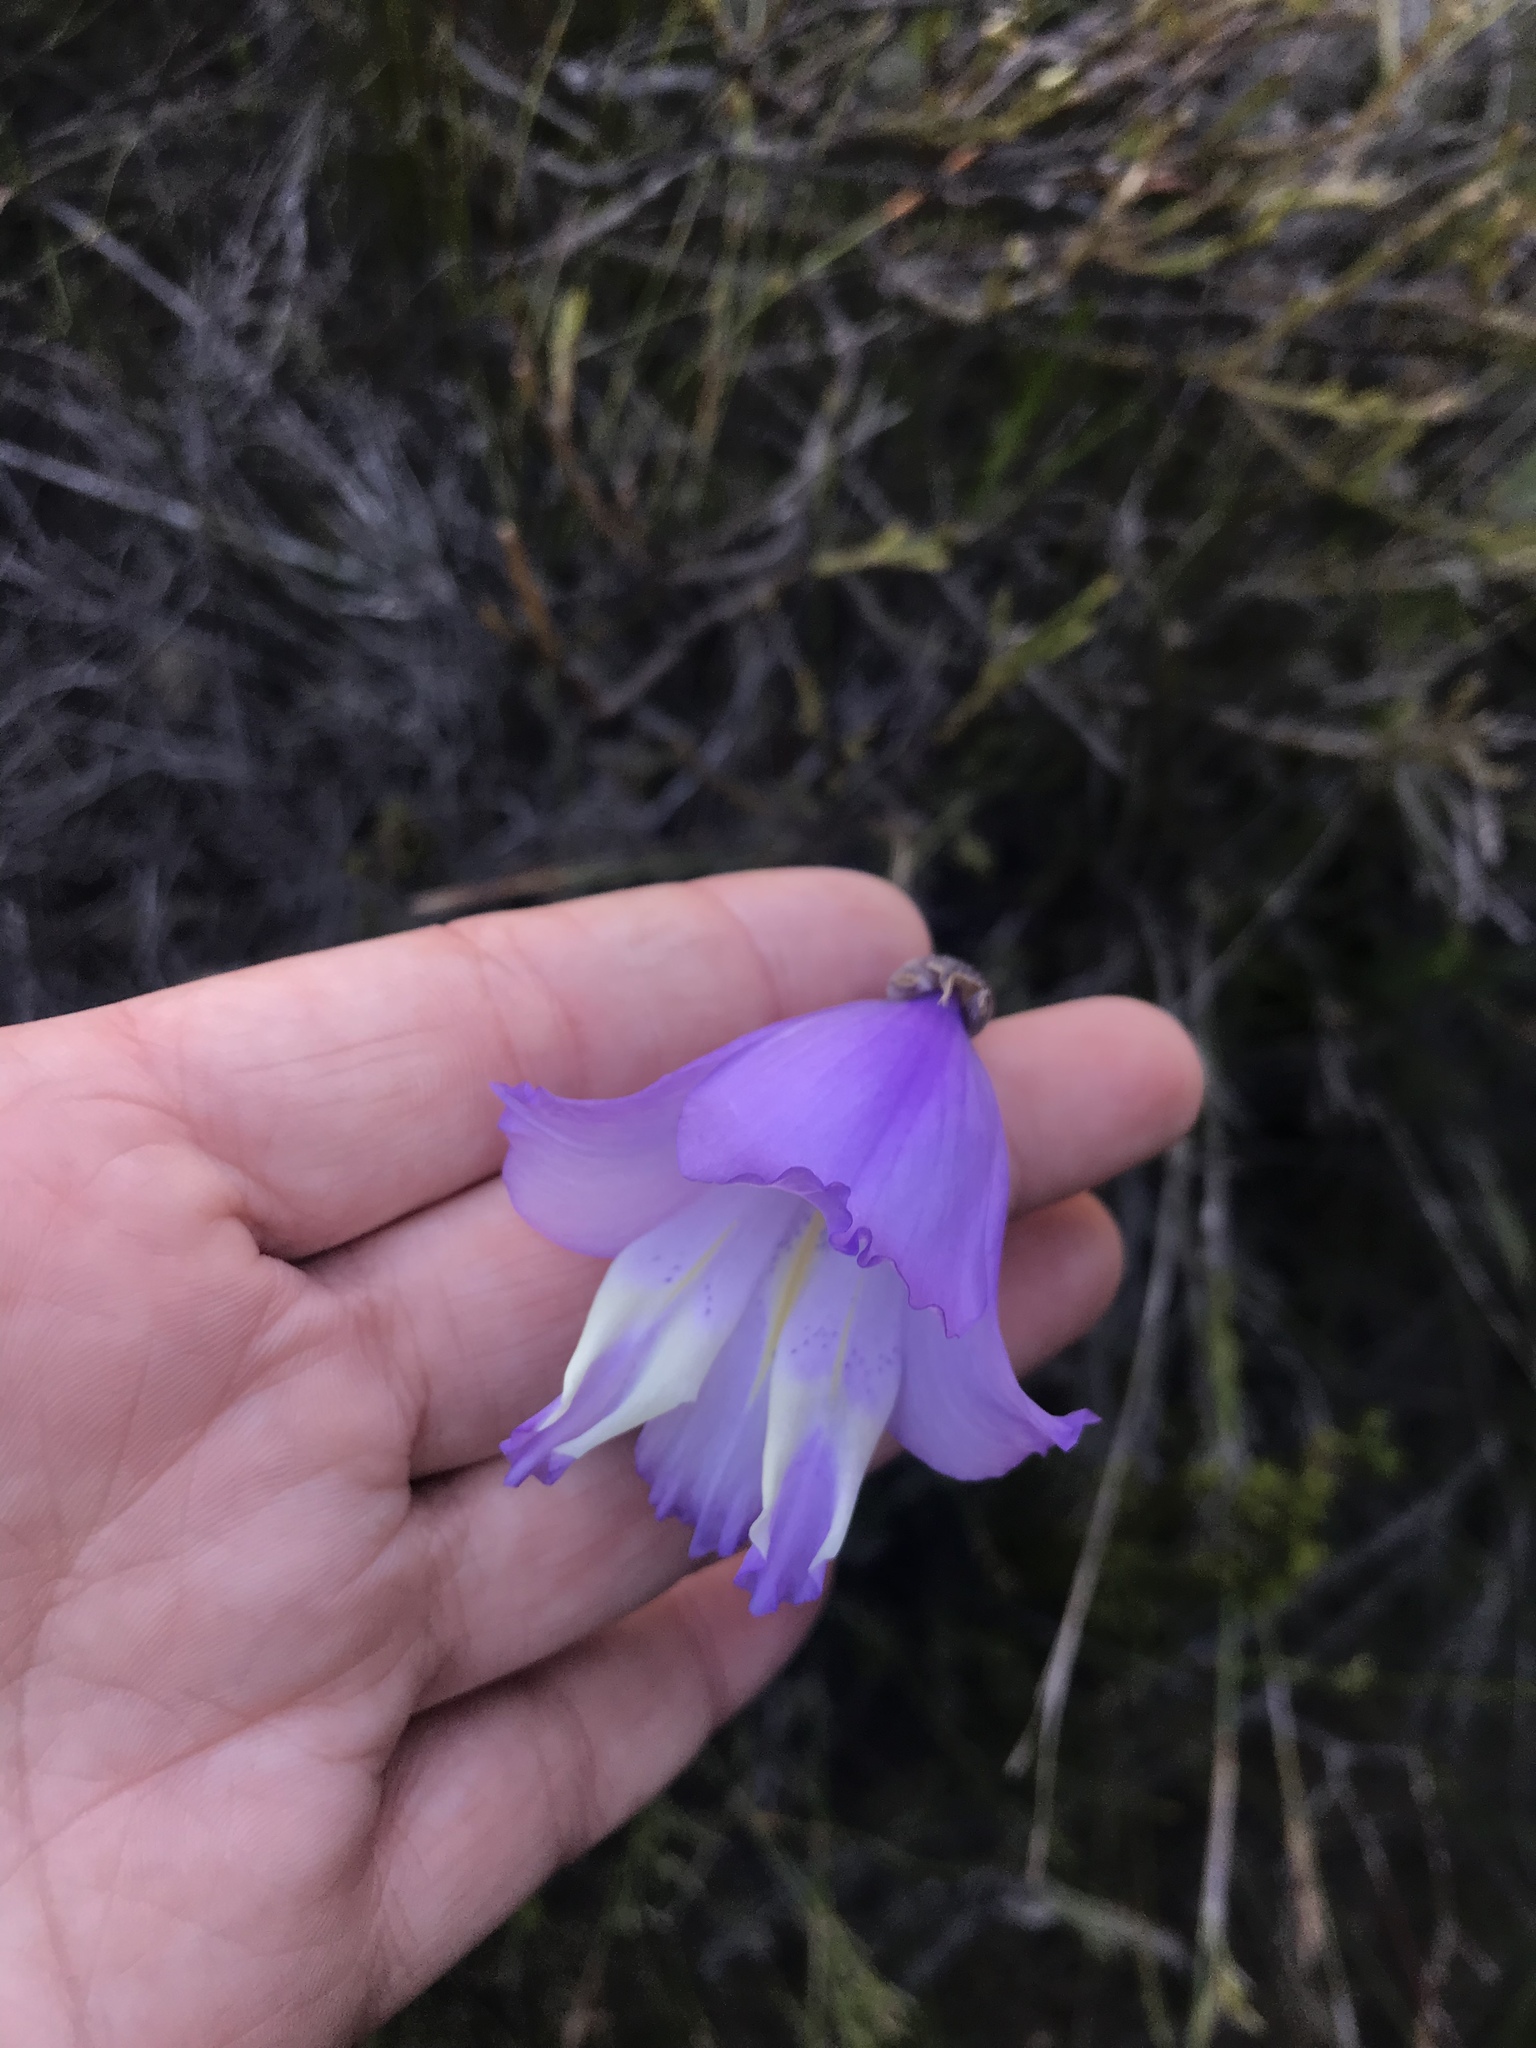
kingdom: Plantae
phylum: Tracheophyta
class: Liliopsida
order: Asparagales
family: Iridaceae
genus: Gladiolus
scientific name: Gladiolus bullatus
